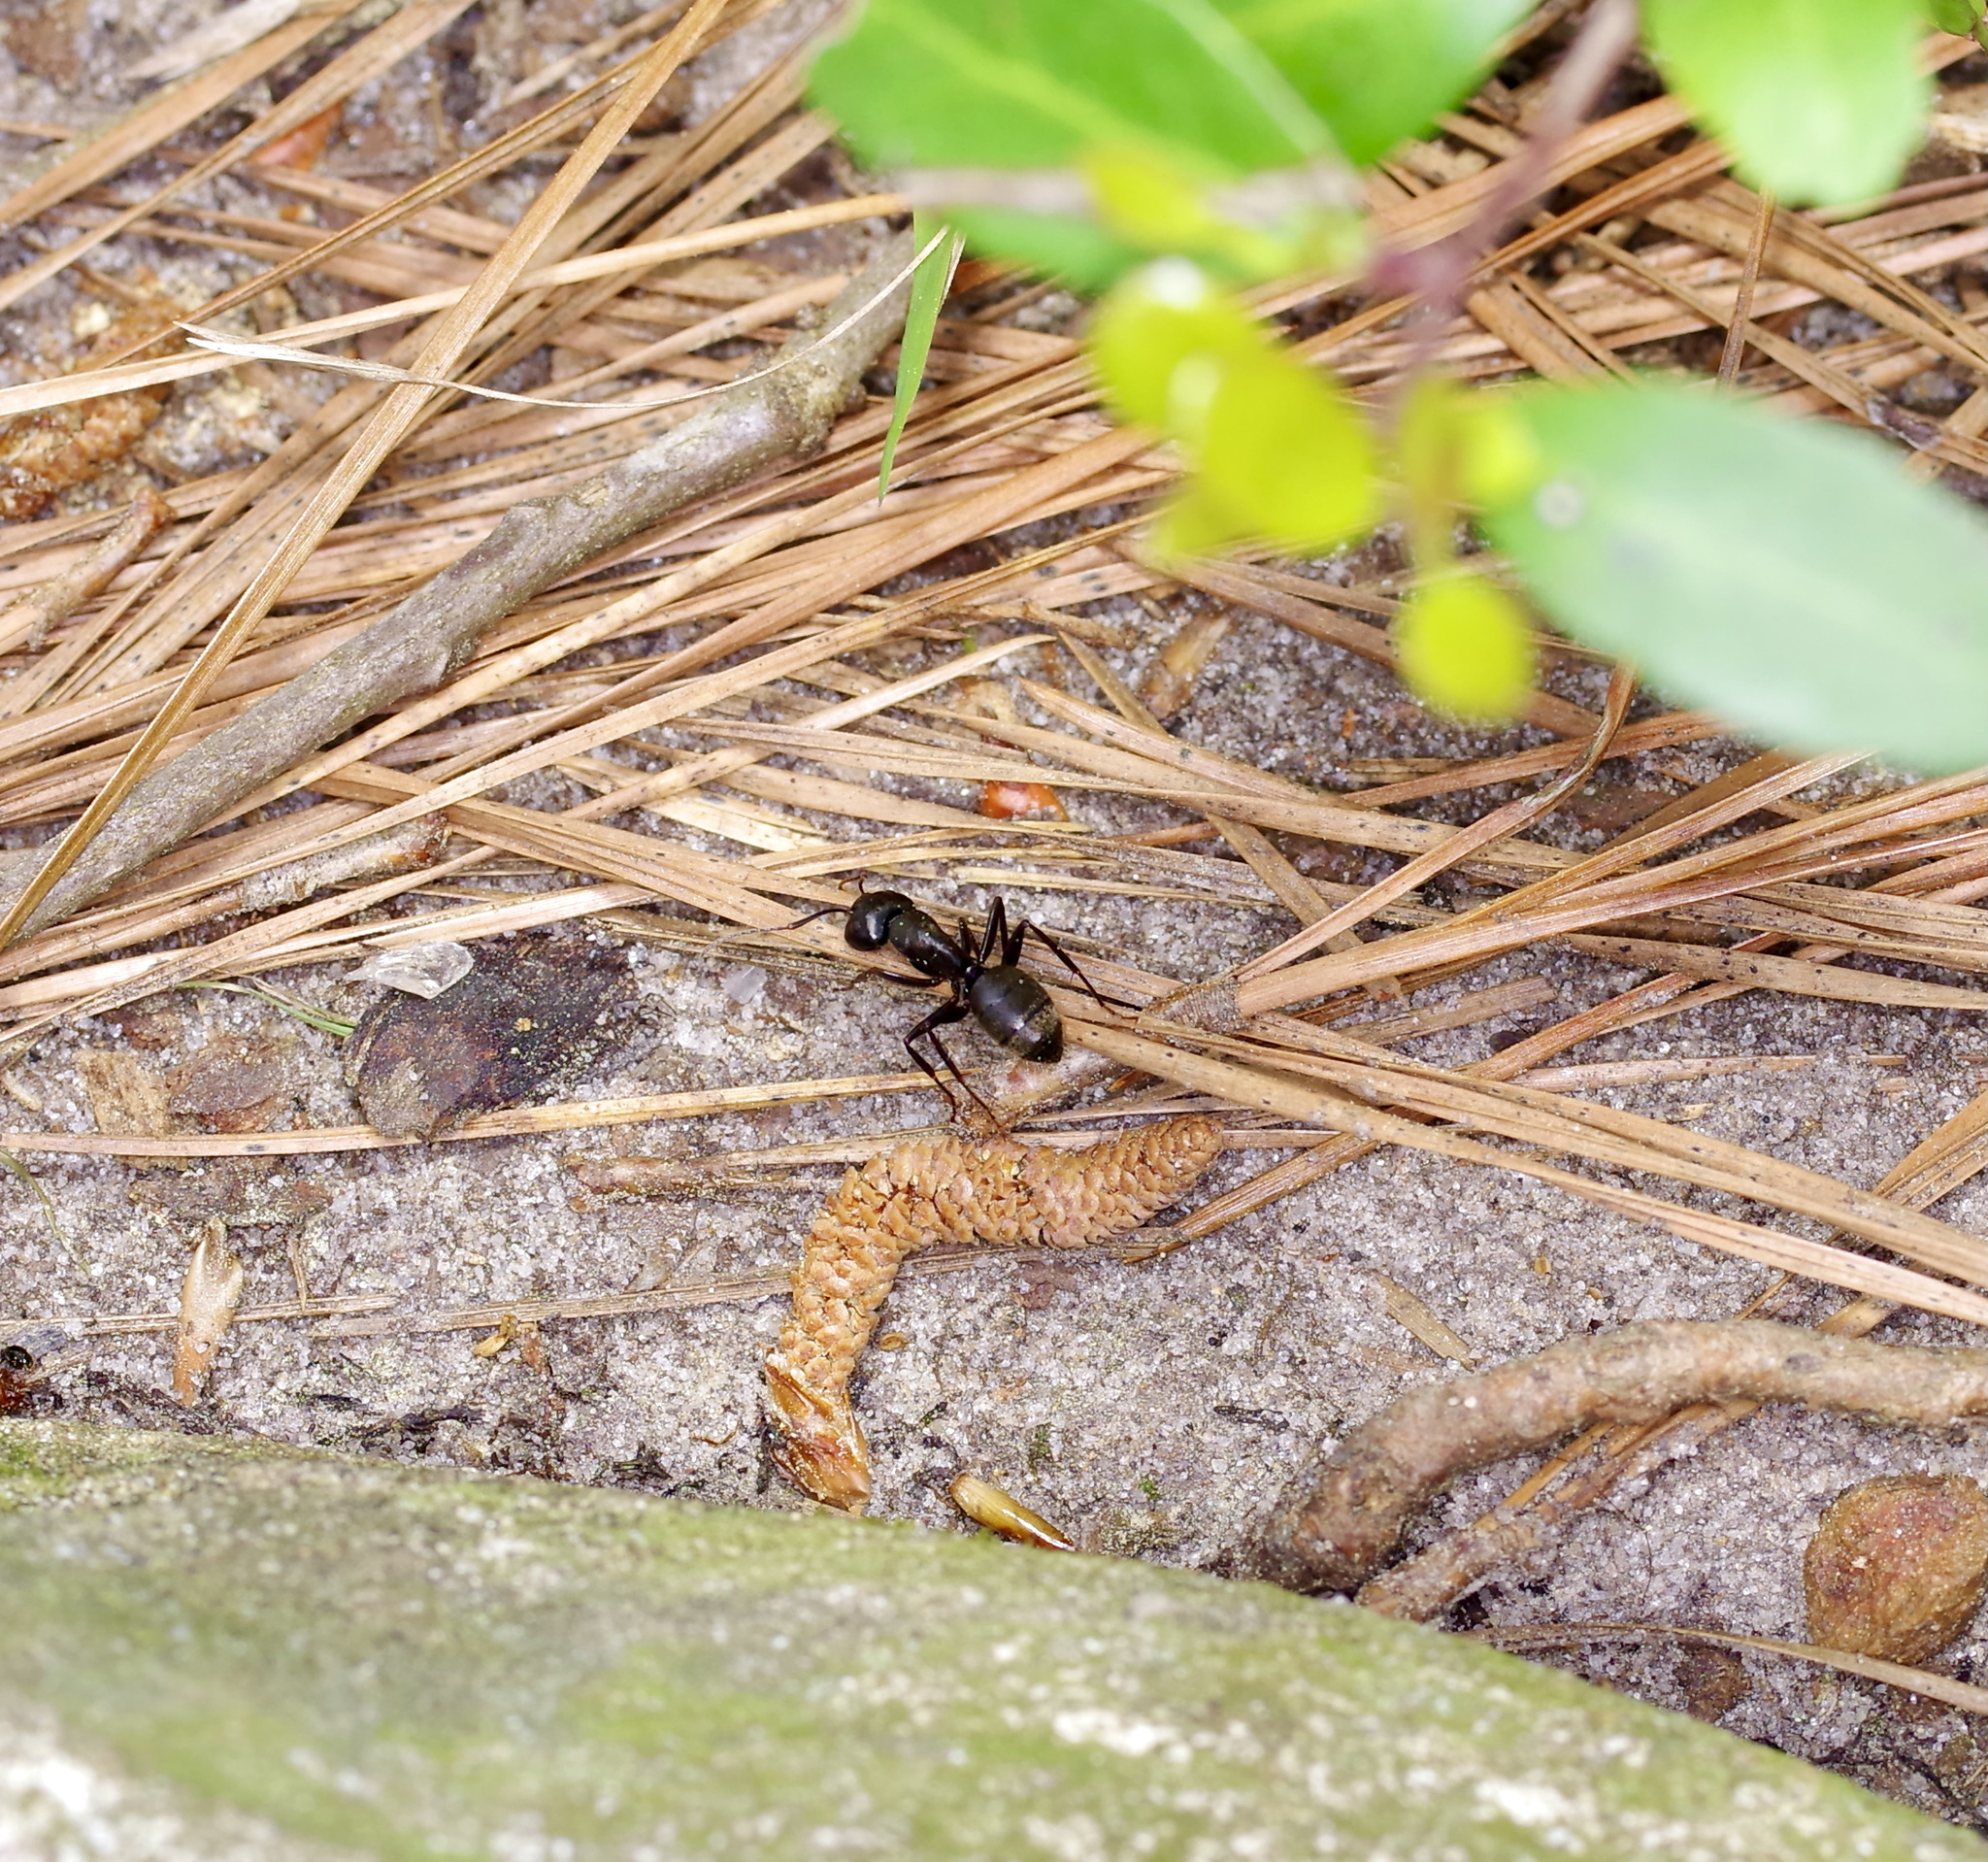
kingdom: Animalia
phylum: Arthropoda
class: Insecta
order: Hymenoptera
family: Formicidae
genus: Camponotus
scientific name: Camponotus pennsylvanicus
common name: Black carpenter ant
